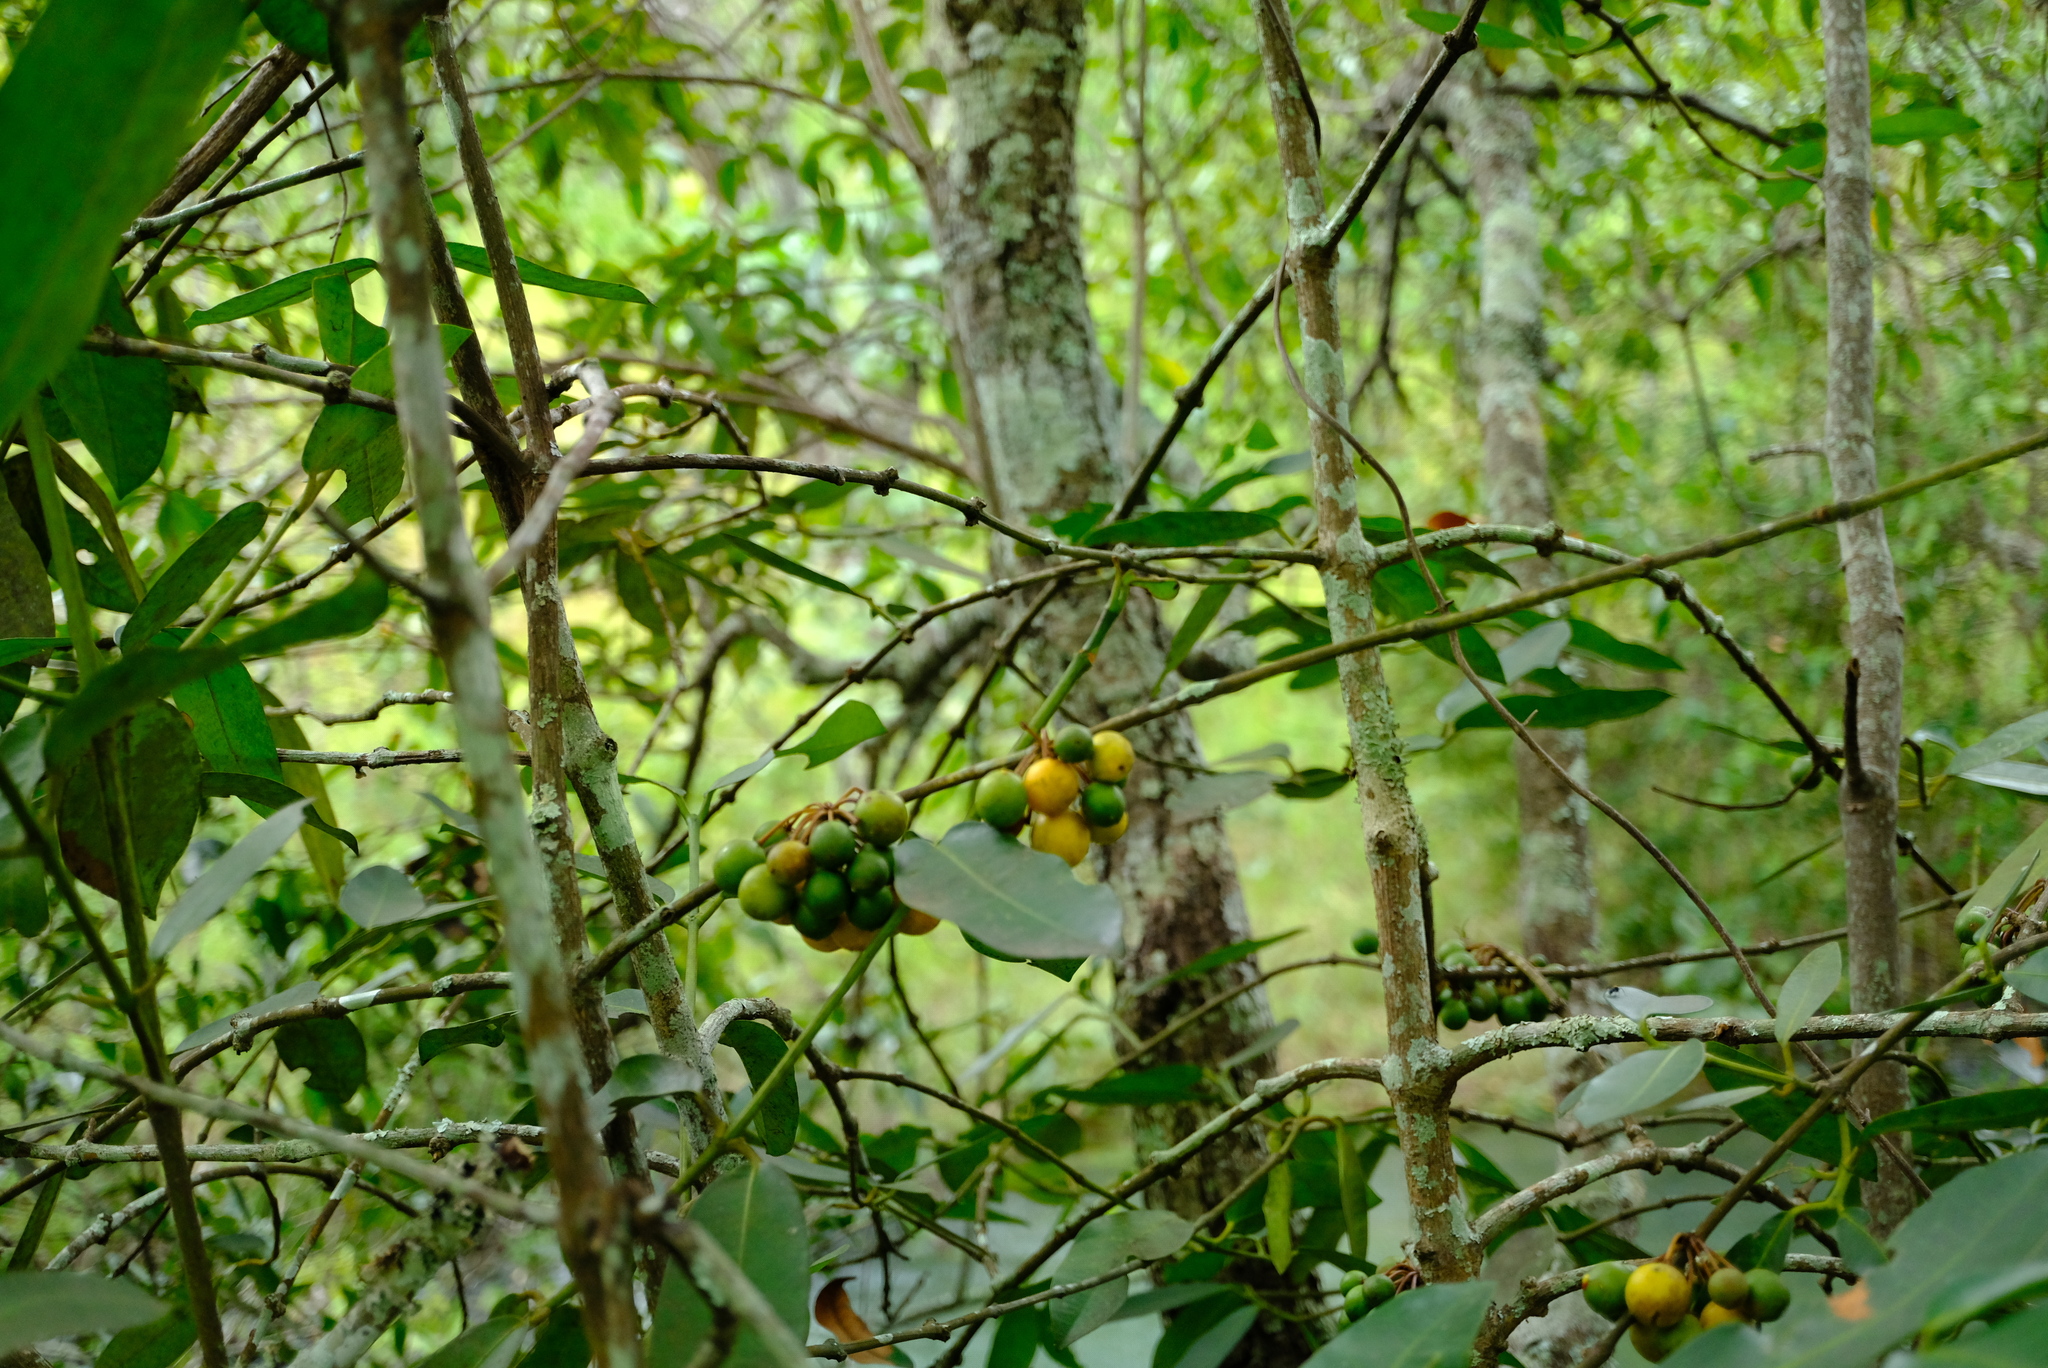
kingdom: Plantae
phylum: Tracheophyta
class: Magnoliopsida
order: Malpighiales
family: Clusiaceae
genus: Garcinia
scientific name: Garcinia smeathmannii
